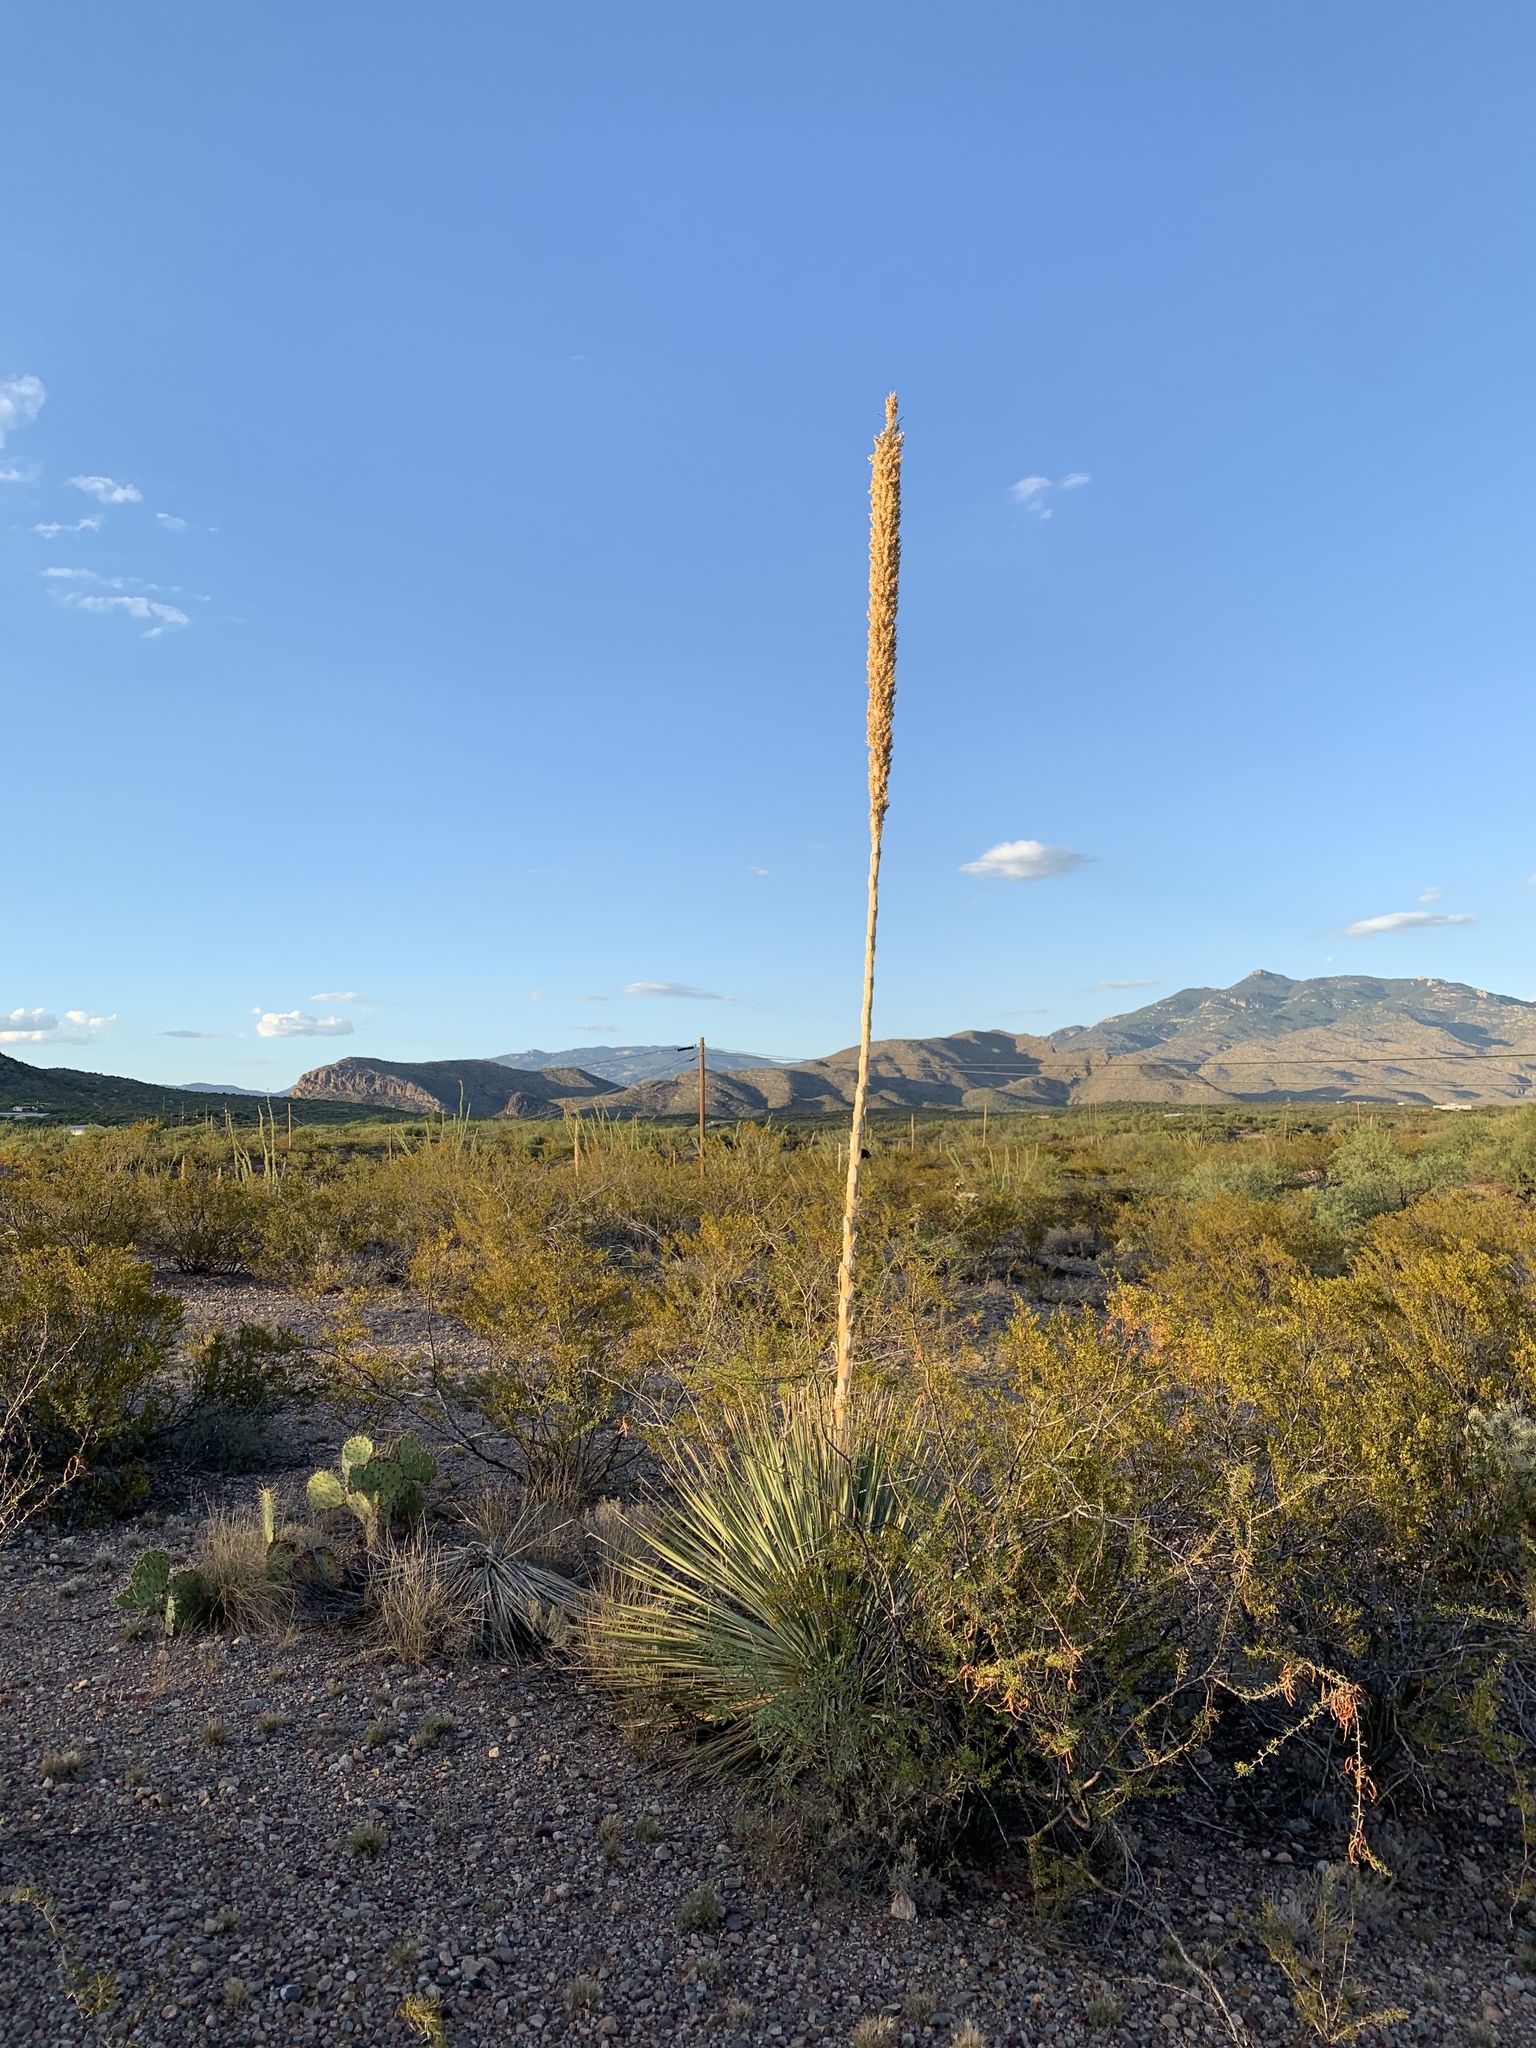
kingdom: Plantae
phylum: Tracheophyta
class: Liliopsida
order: Asparagales
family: Asparagaceae
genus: Dasylirion
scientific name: Dasylirion wheeleri
